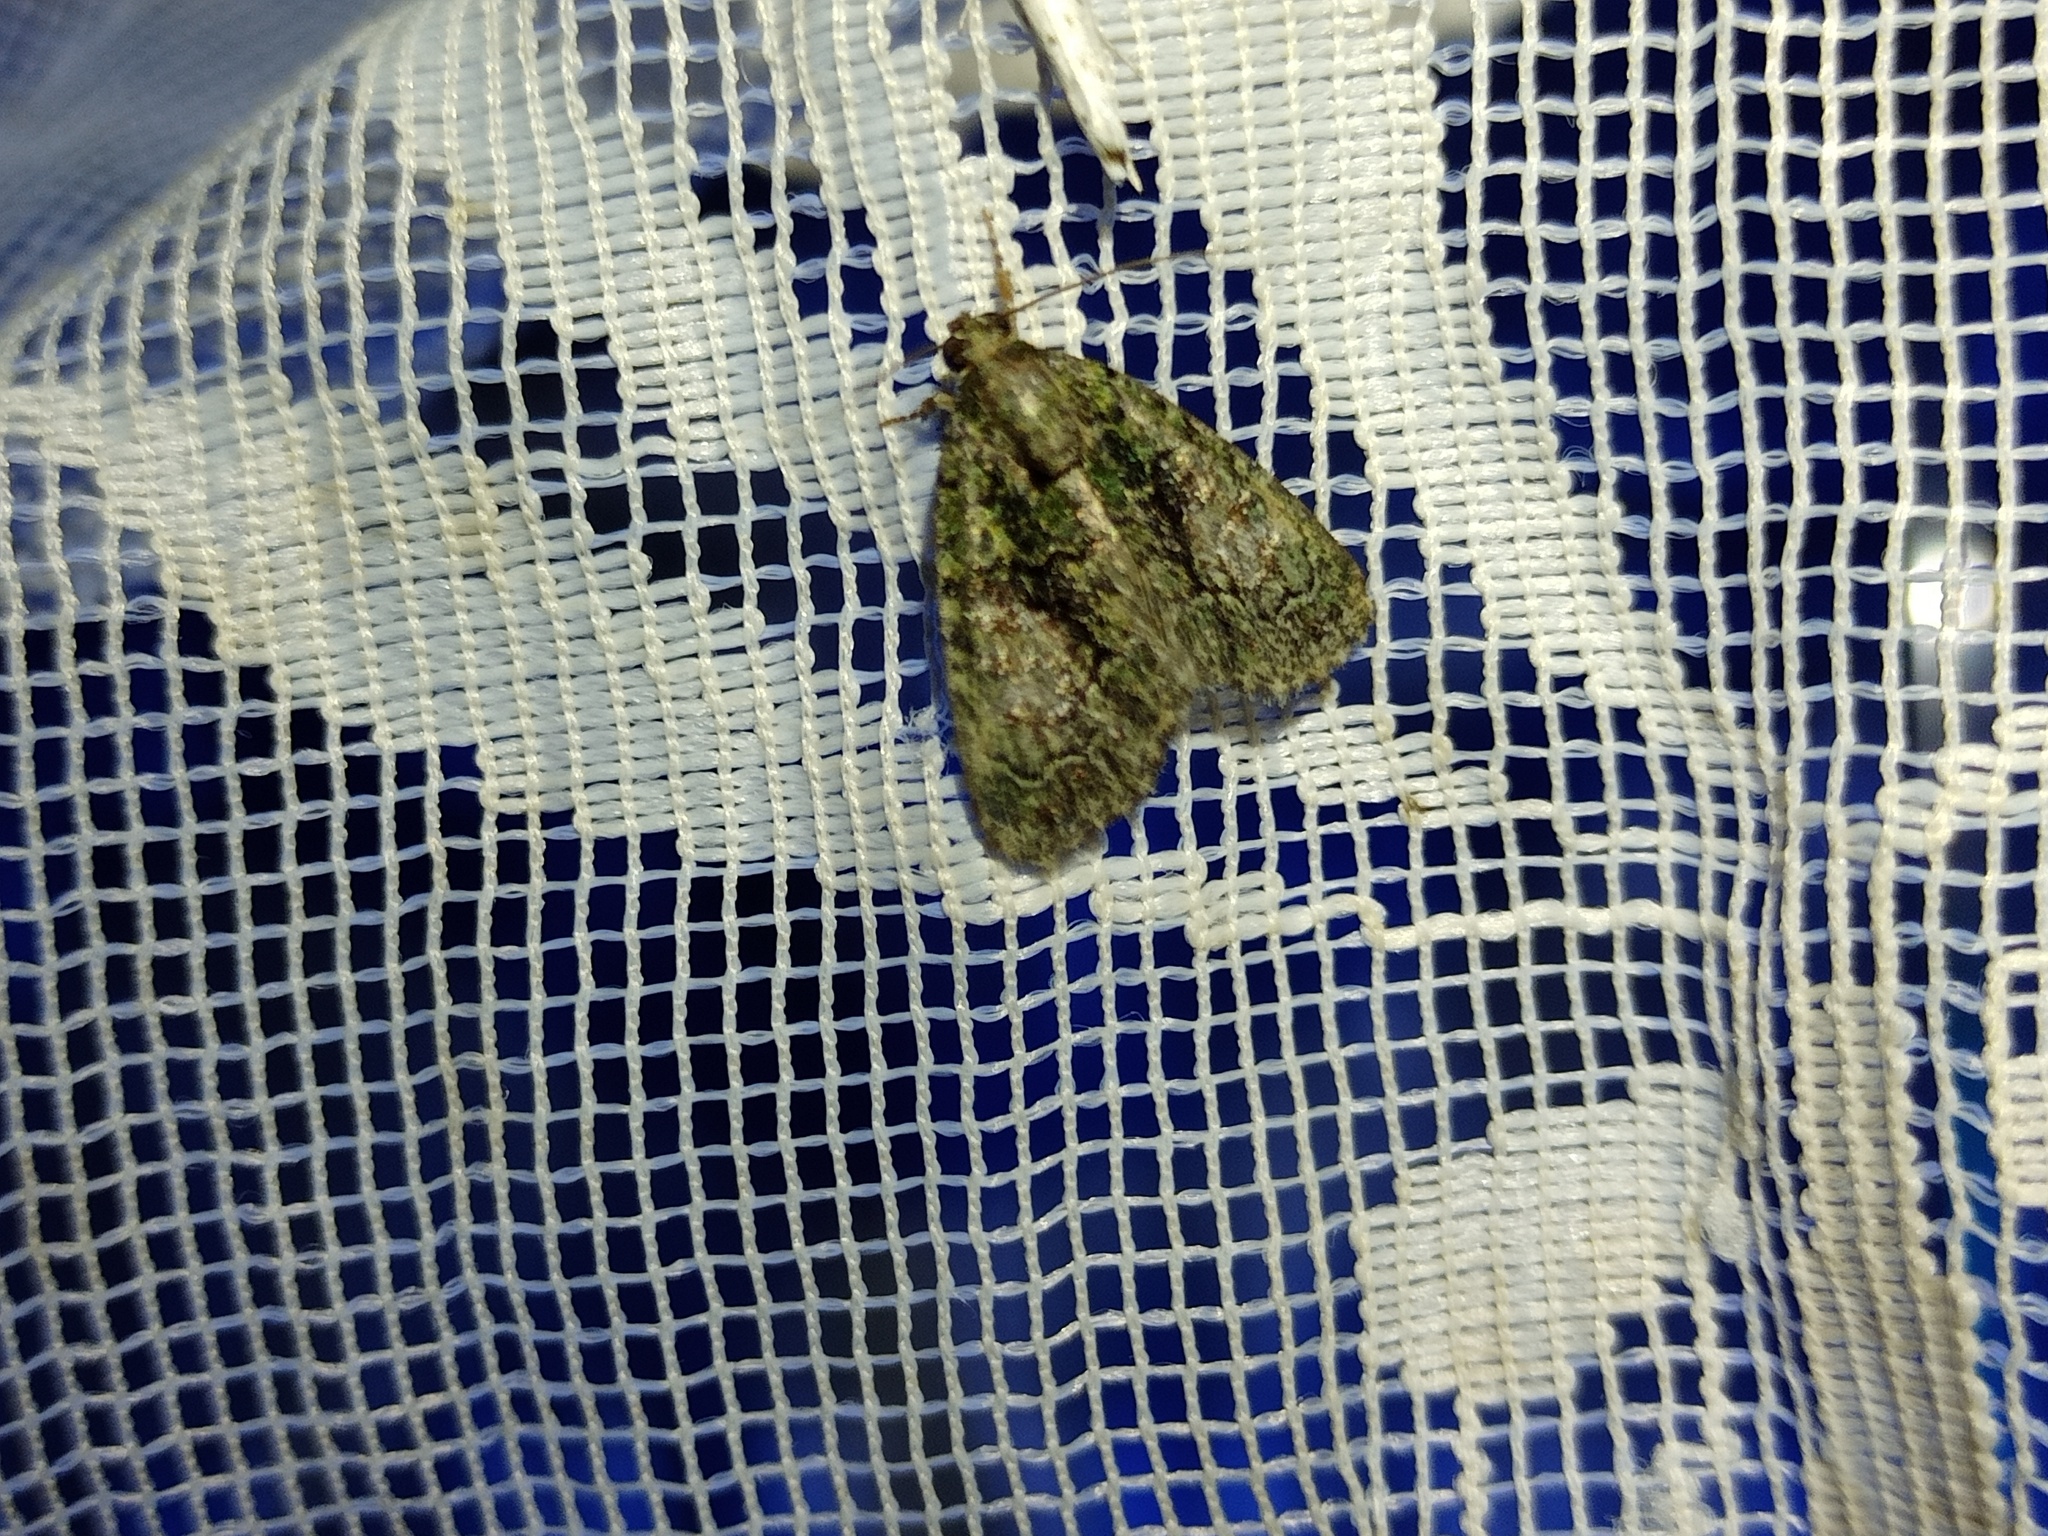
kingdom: Animalia
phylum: Arthropoda
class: Insecta
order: Lepidoptera
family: Noctuidae
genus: Cryphia
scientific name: Cryphia algae
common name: Tree-lichen beauty
